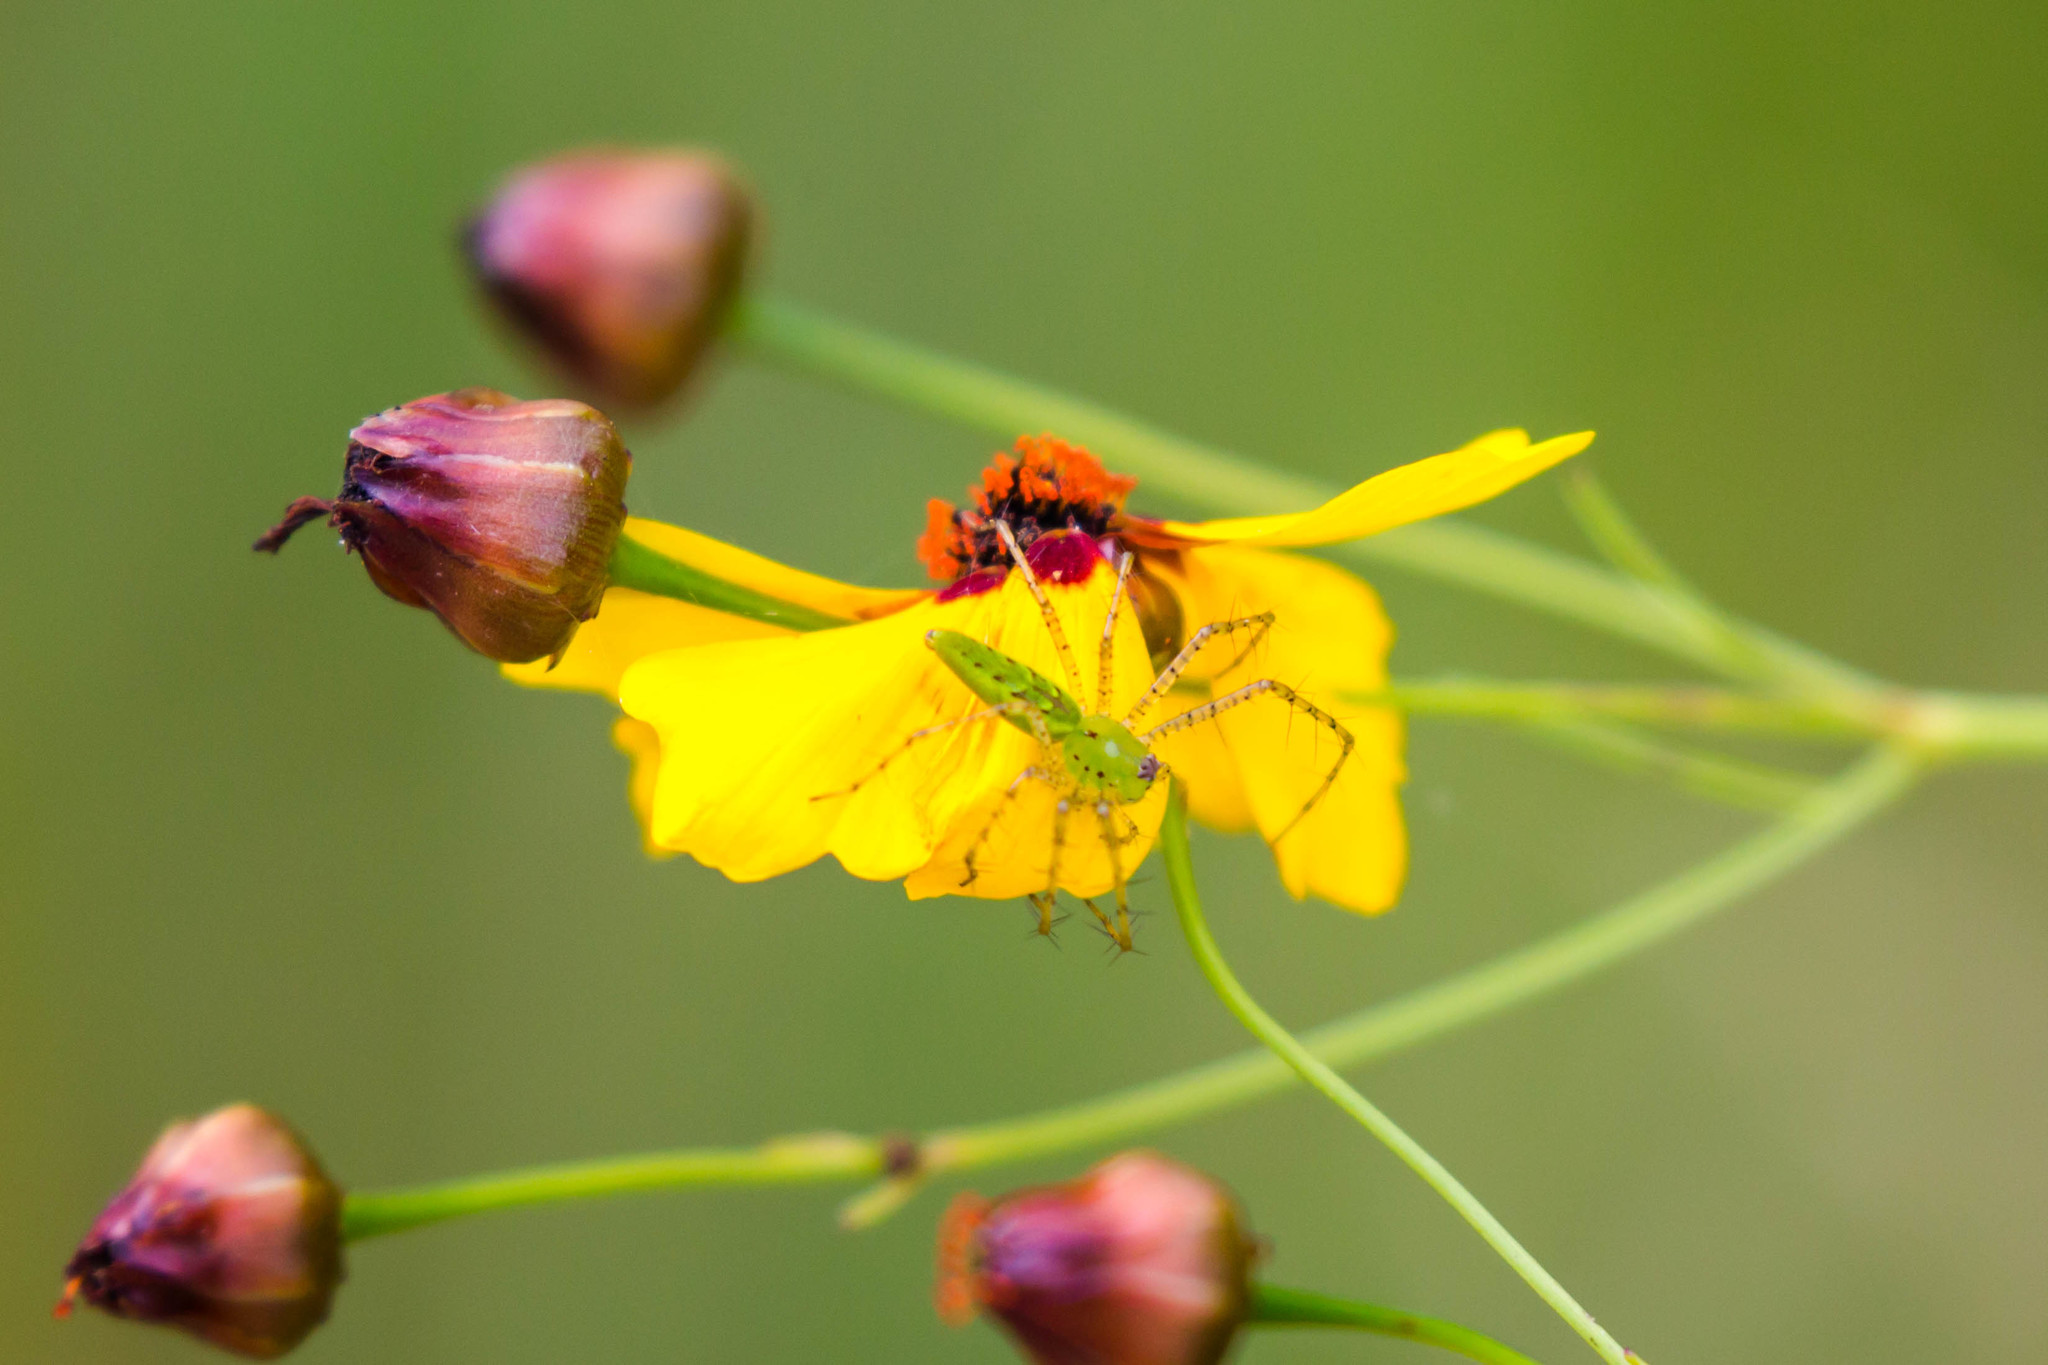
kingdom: Animalia
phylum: Arthropoda
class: Arachnida
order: Araneae
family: Oxyopidae
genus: Peucetia
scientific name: Peucetia viridans
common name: Lynx spiders
